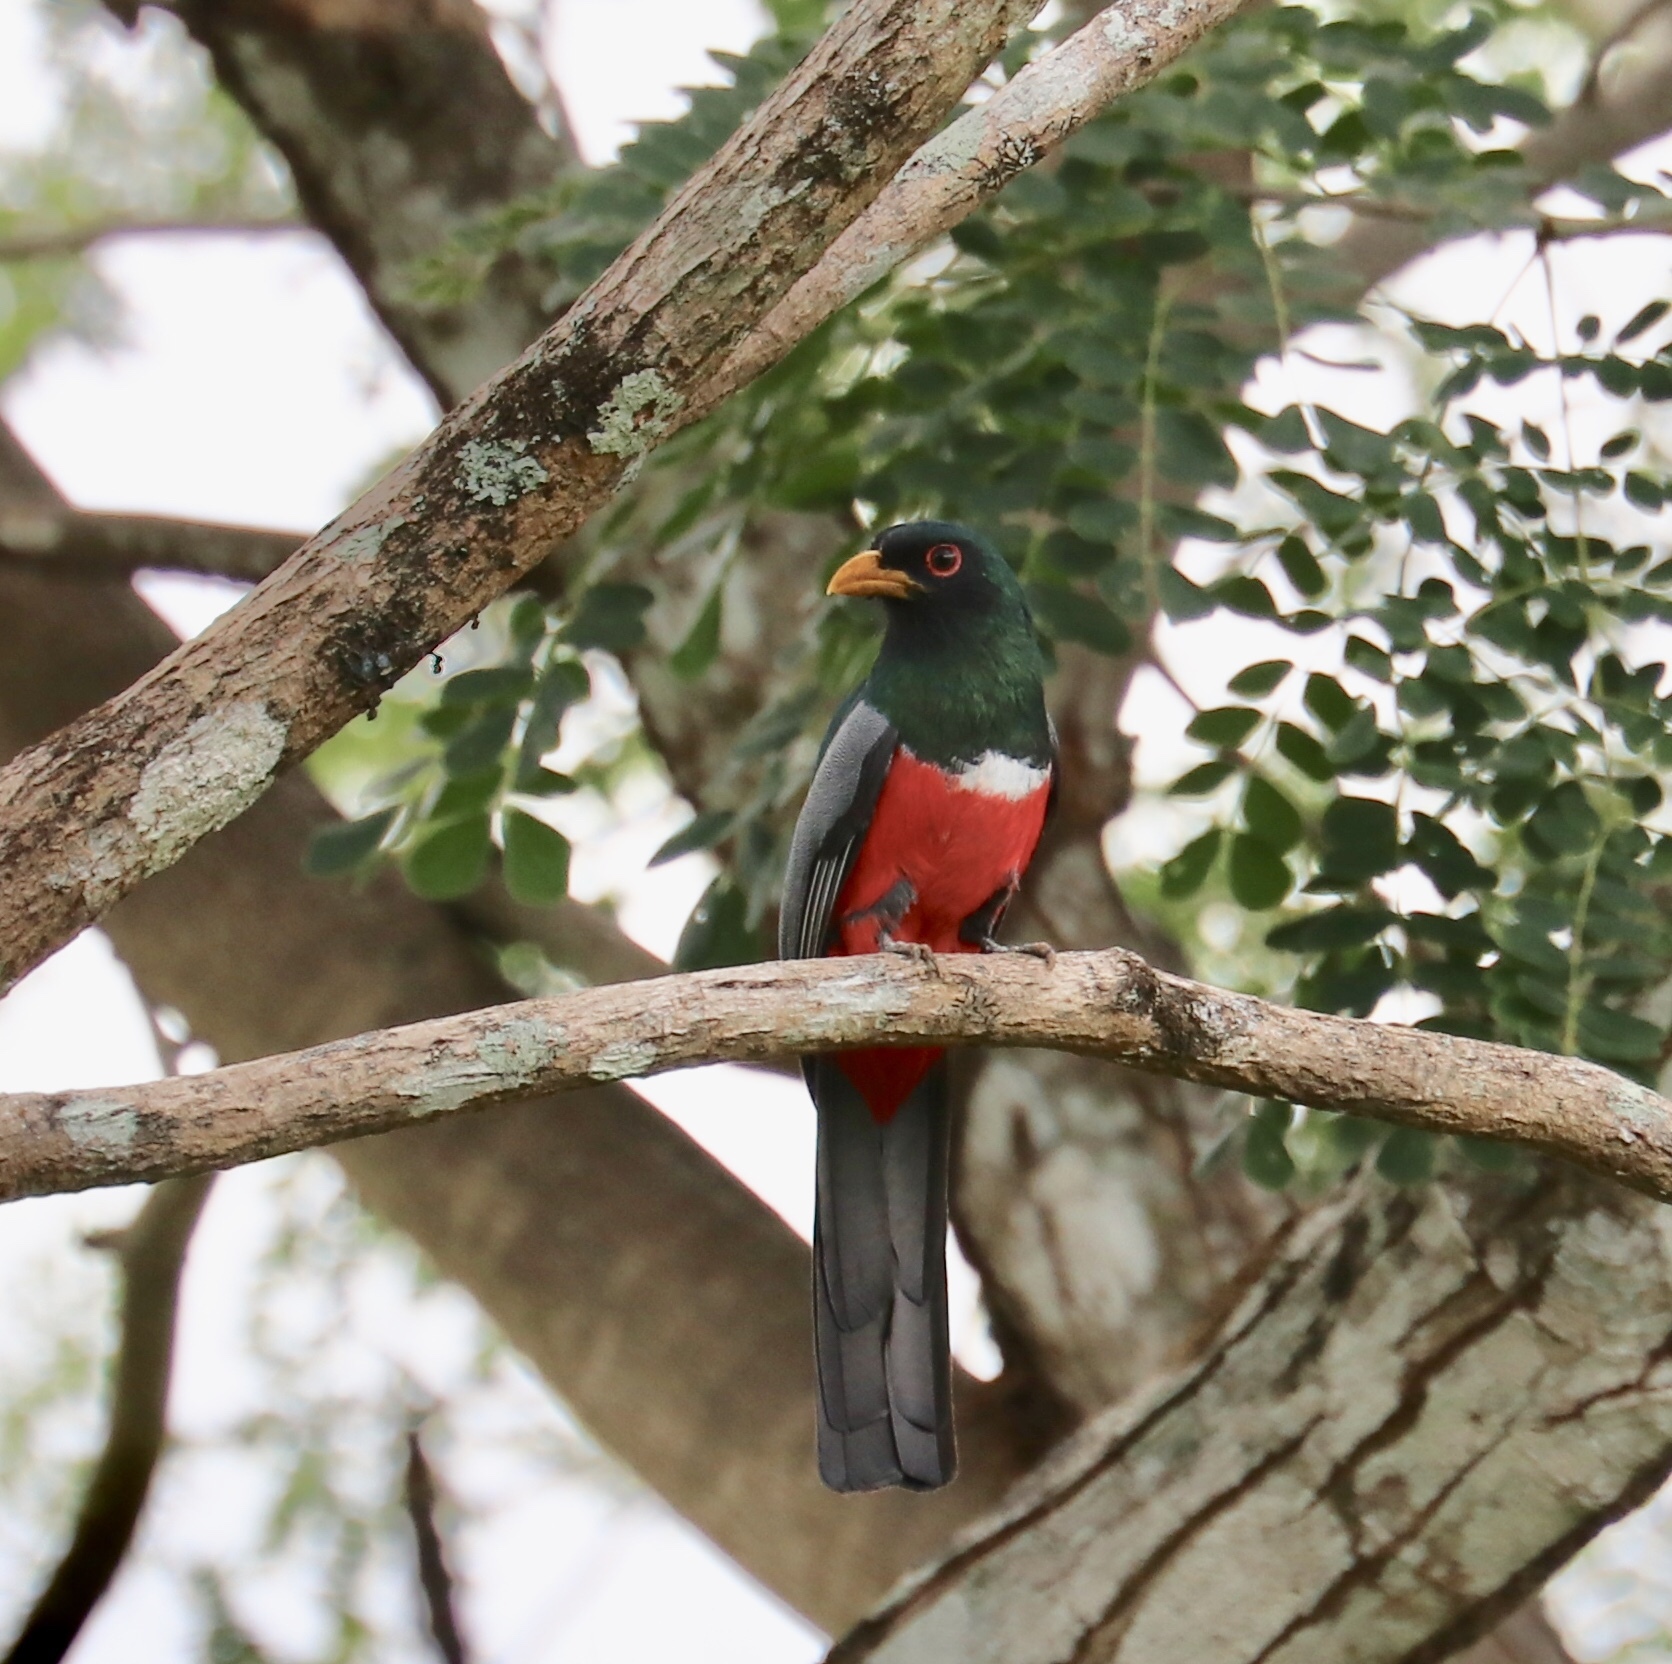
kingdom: Animalia
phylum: Chordata
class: Aves
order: Trogoniformes
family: Trogonidae
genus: Trogon
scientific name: Trogon melanurus
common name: Black-tailed trogon
